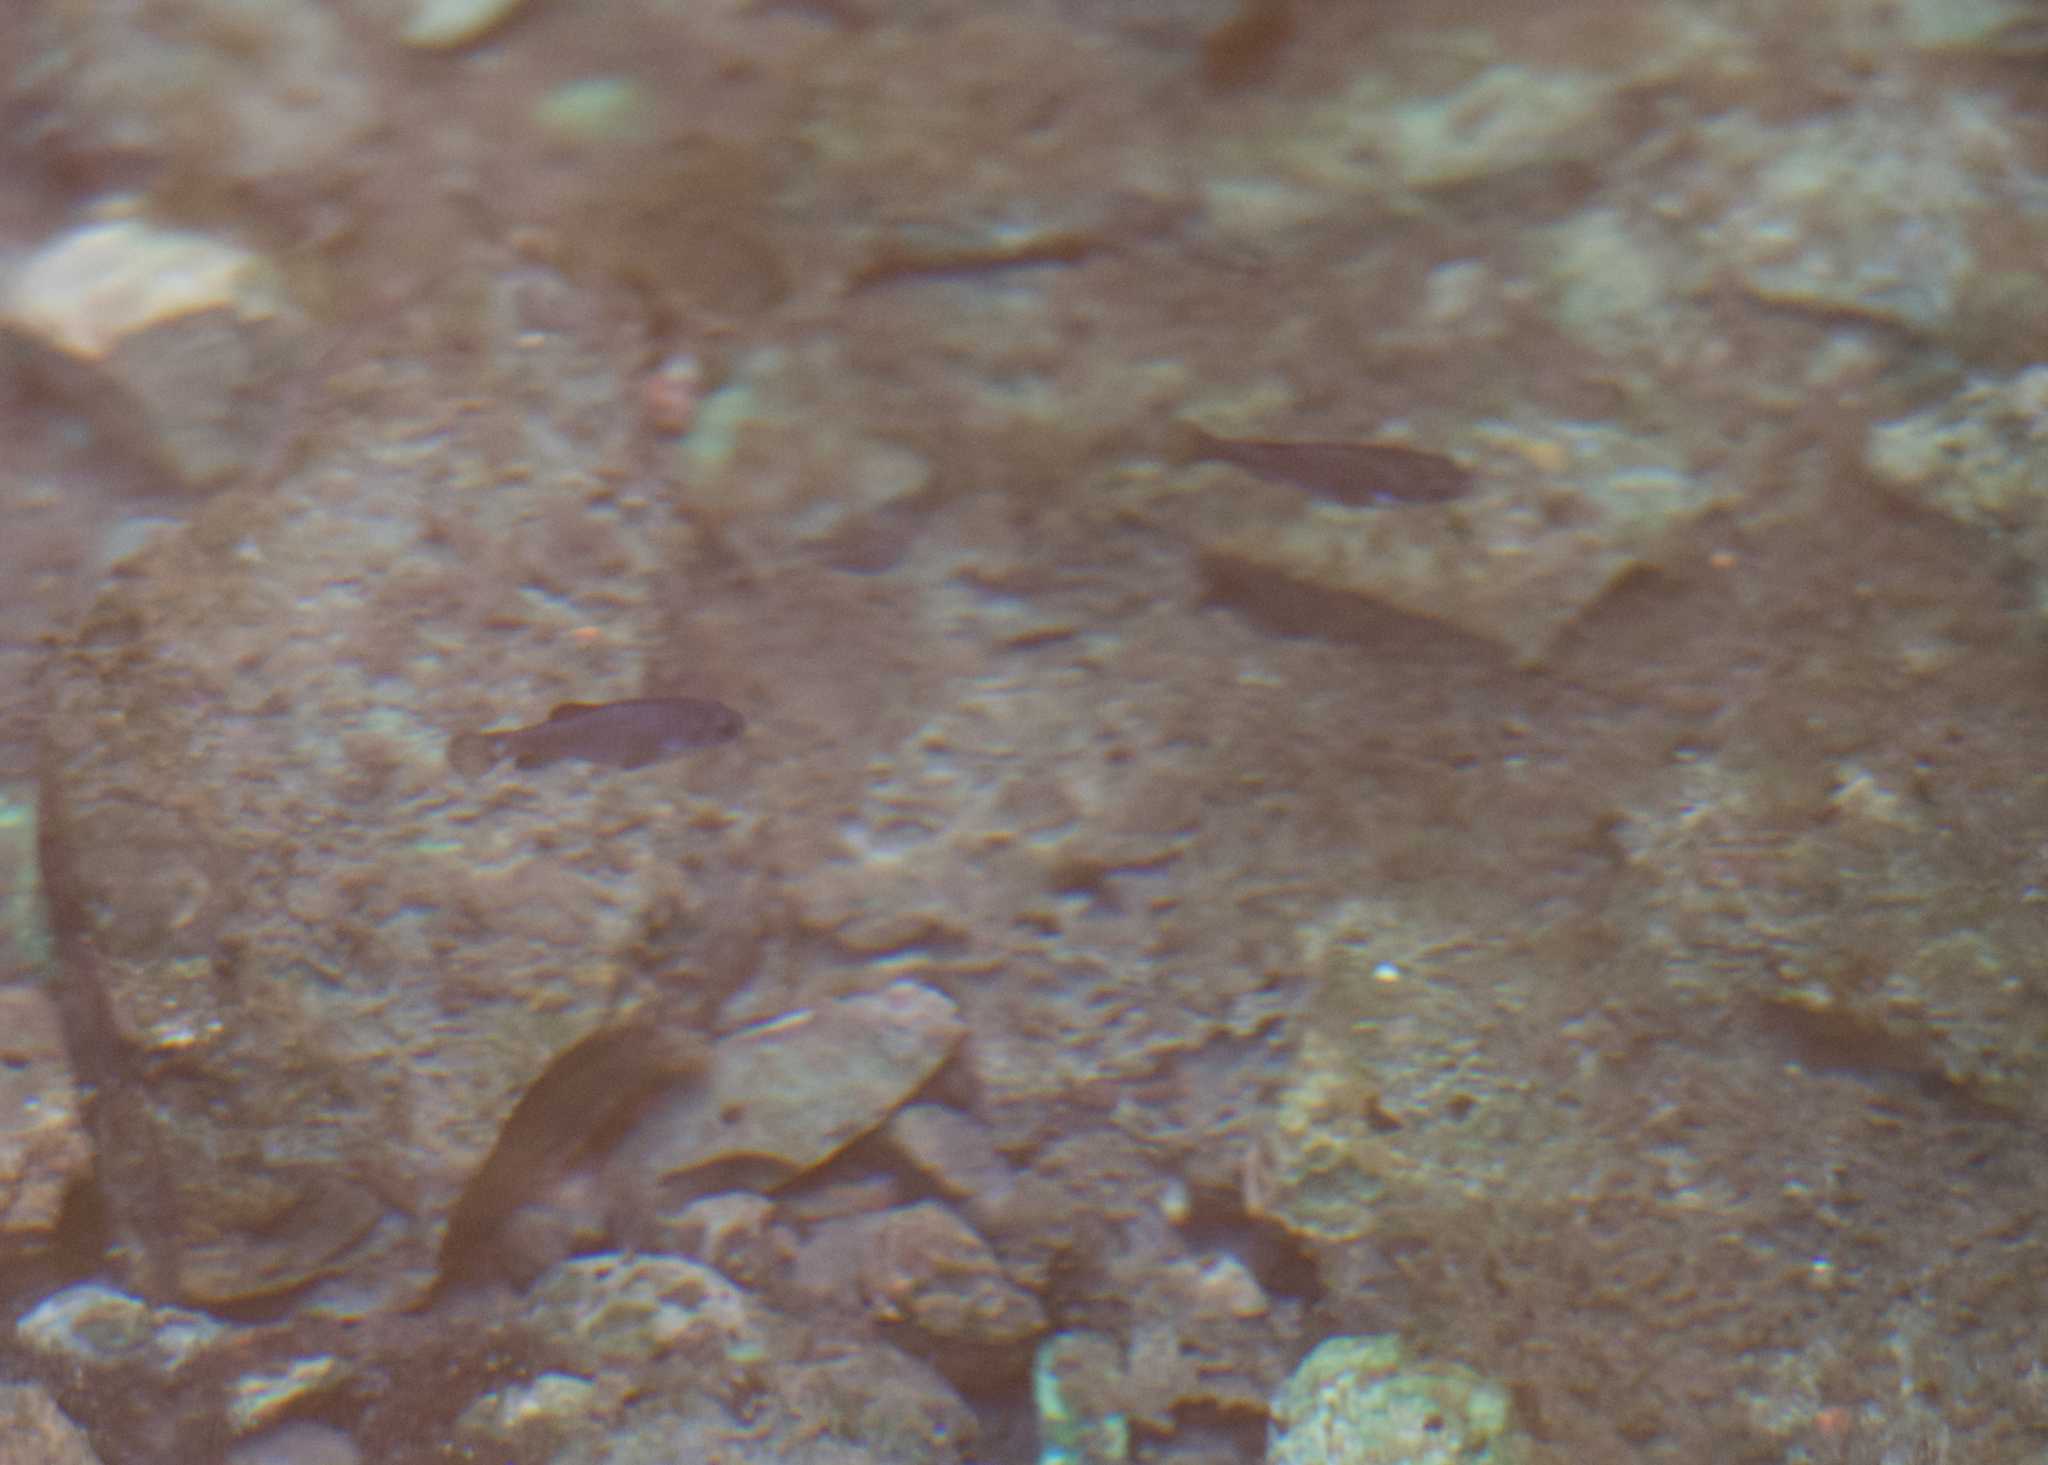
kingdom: Animalia
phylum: Chordata
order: Cyprinodontiformes
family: Cyprinodontidae
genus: Cyprinodon
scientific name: Cyprinodon diabolis
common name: Devils hole pupfish
